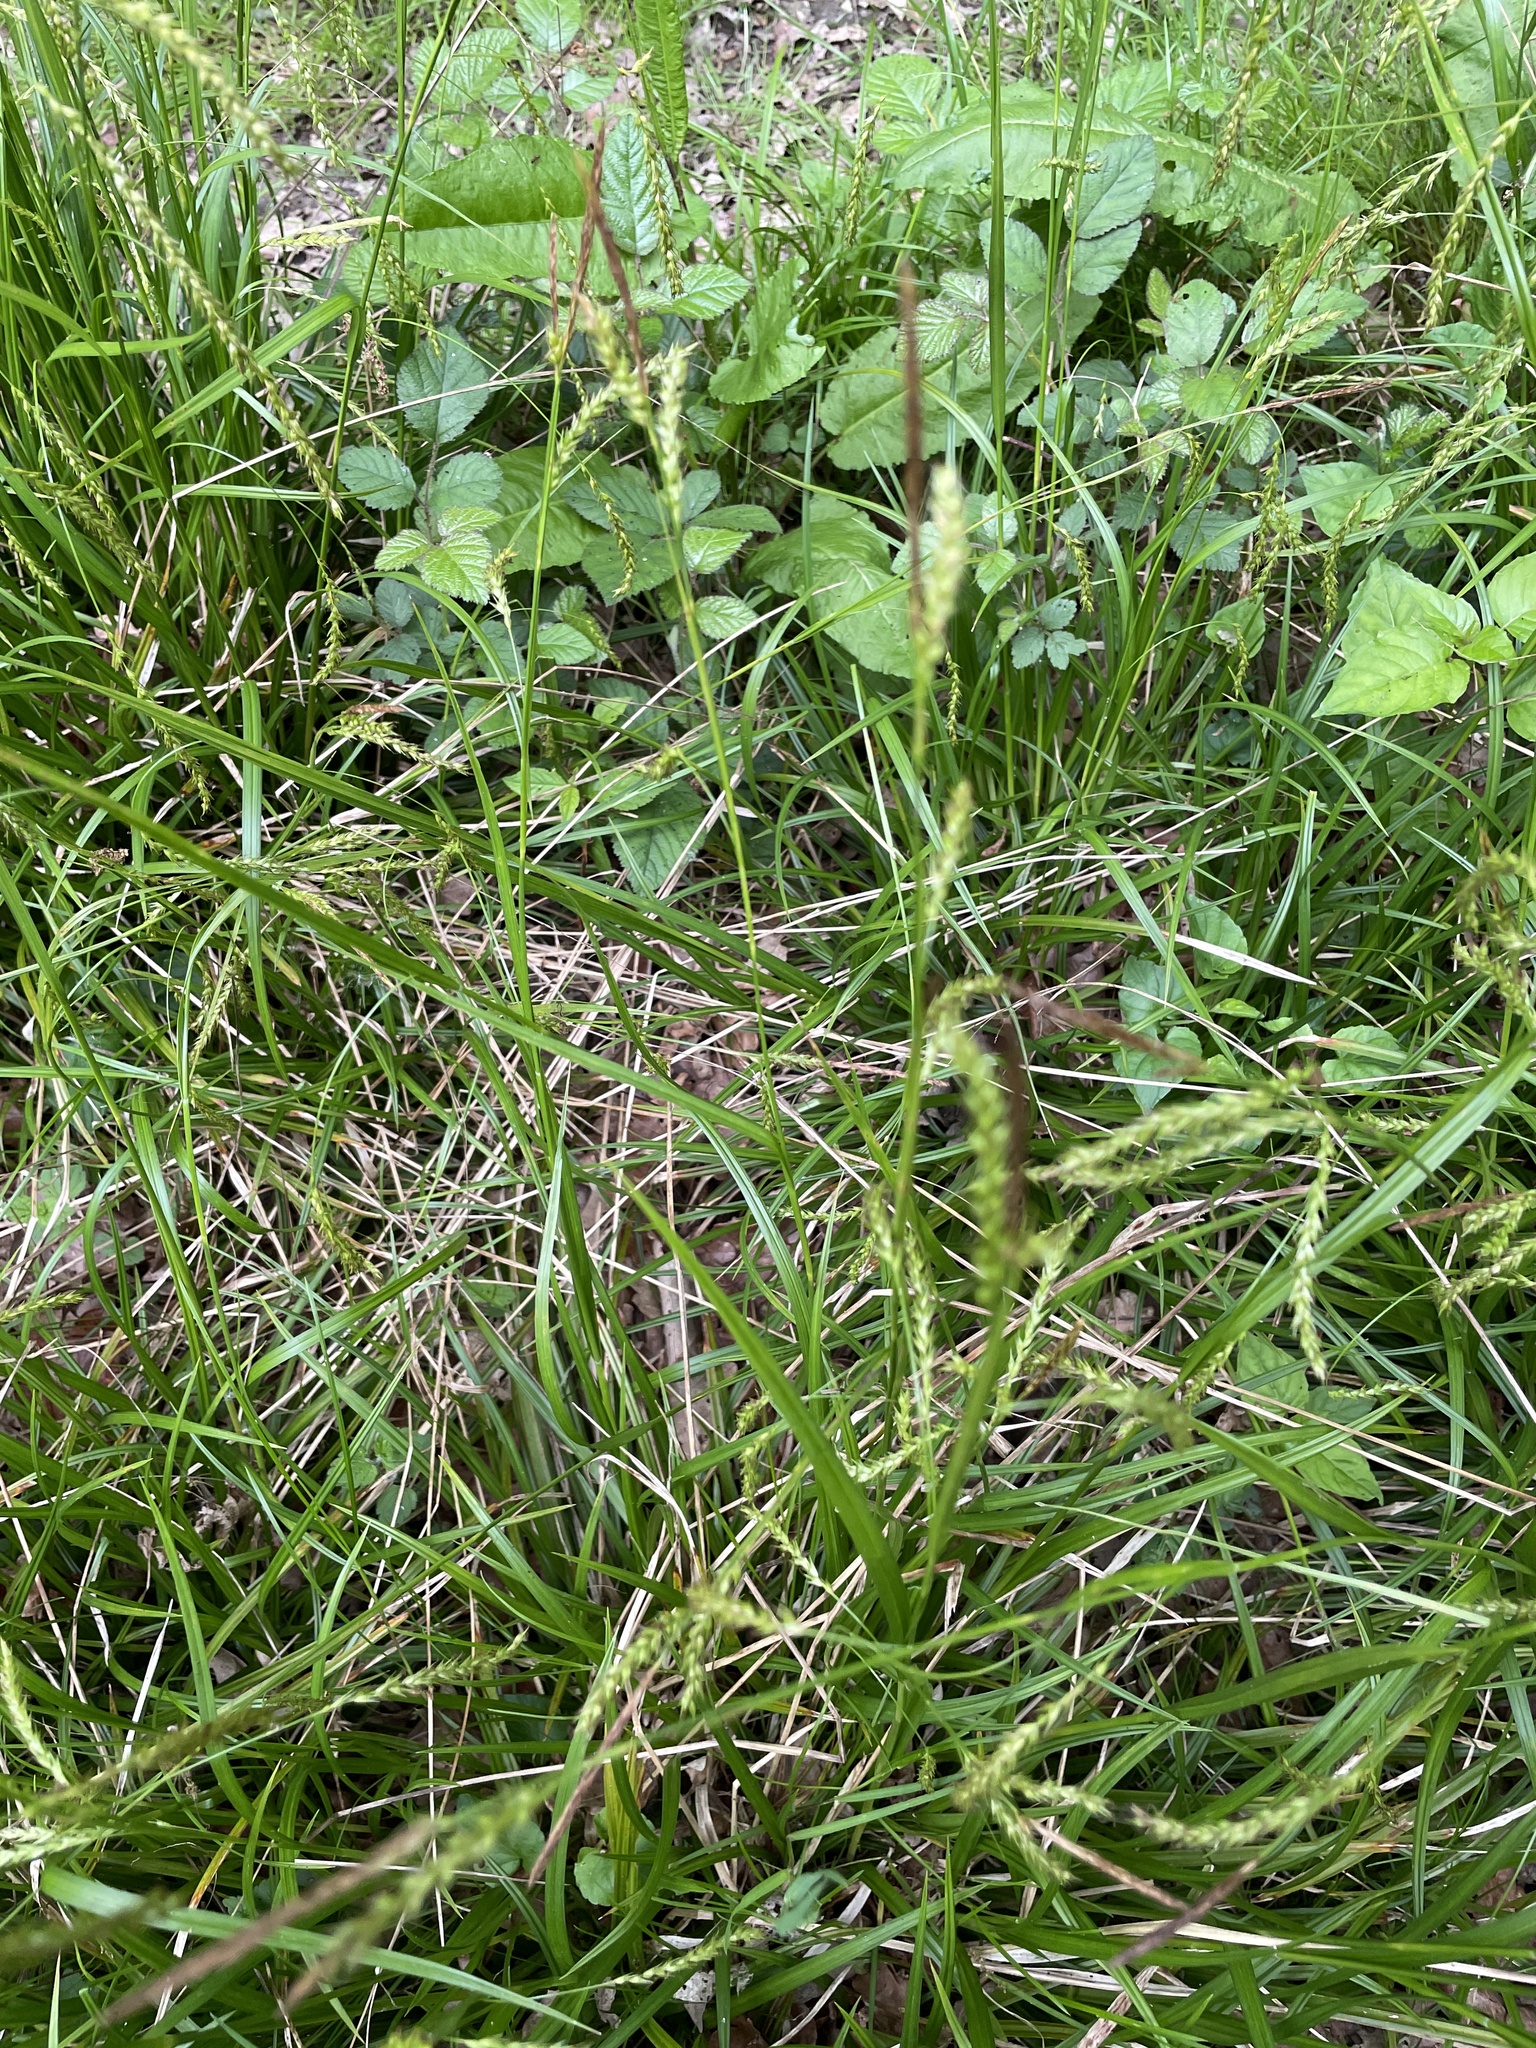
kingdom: Plantae
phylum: Tracheophyta
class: Liliopsida
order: Poales
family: Cyperaceae
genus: Carex
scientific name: Carex sylvatica
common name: Wood-sedge
